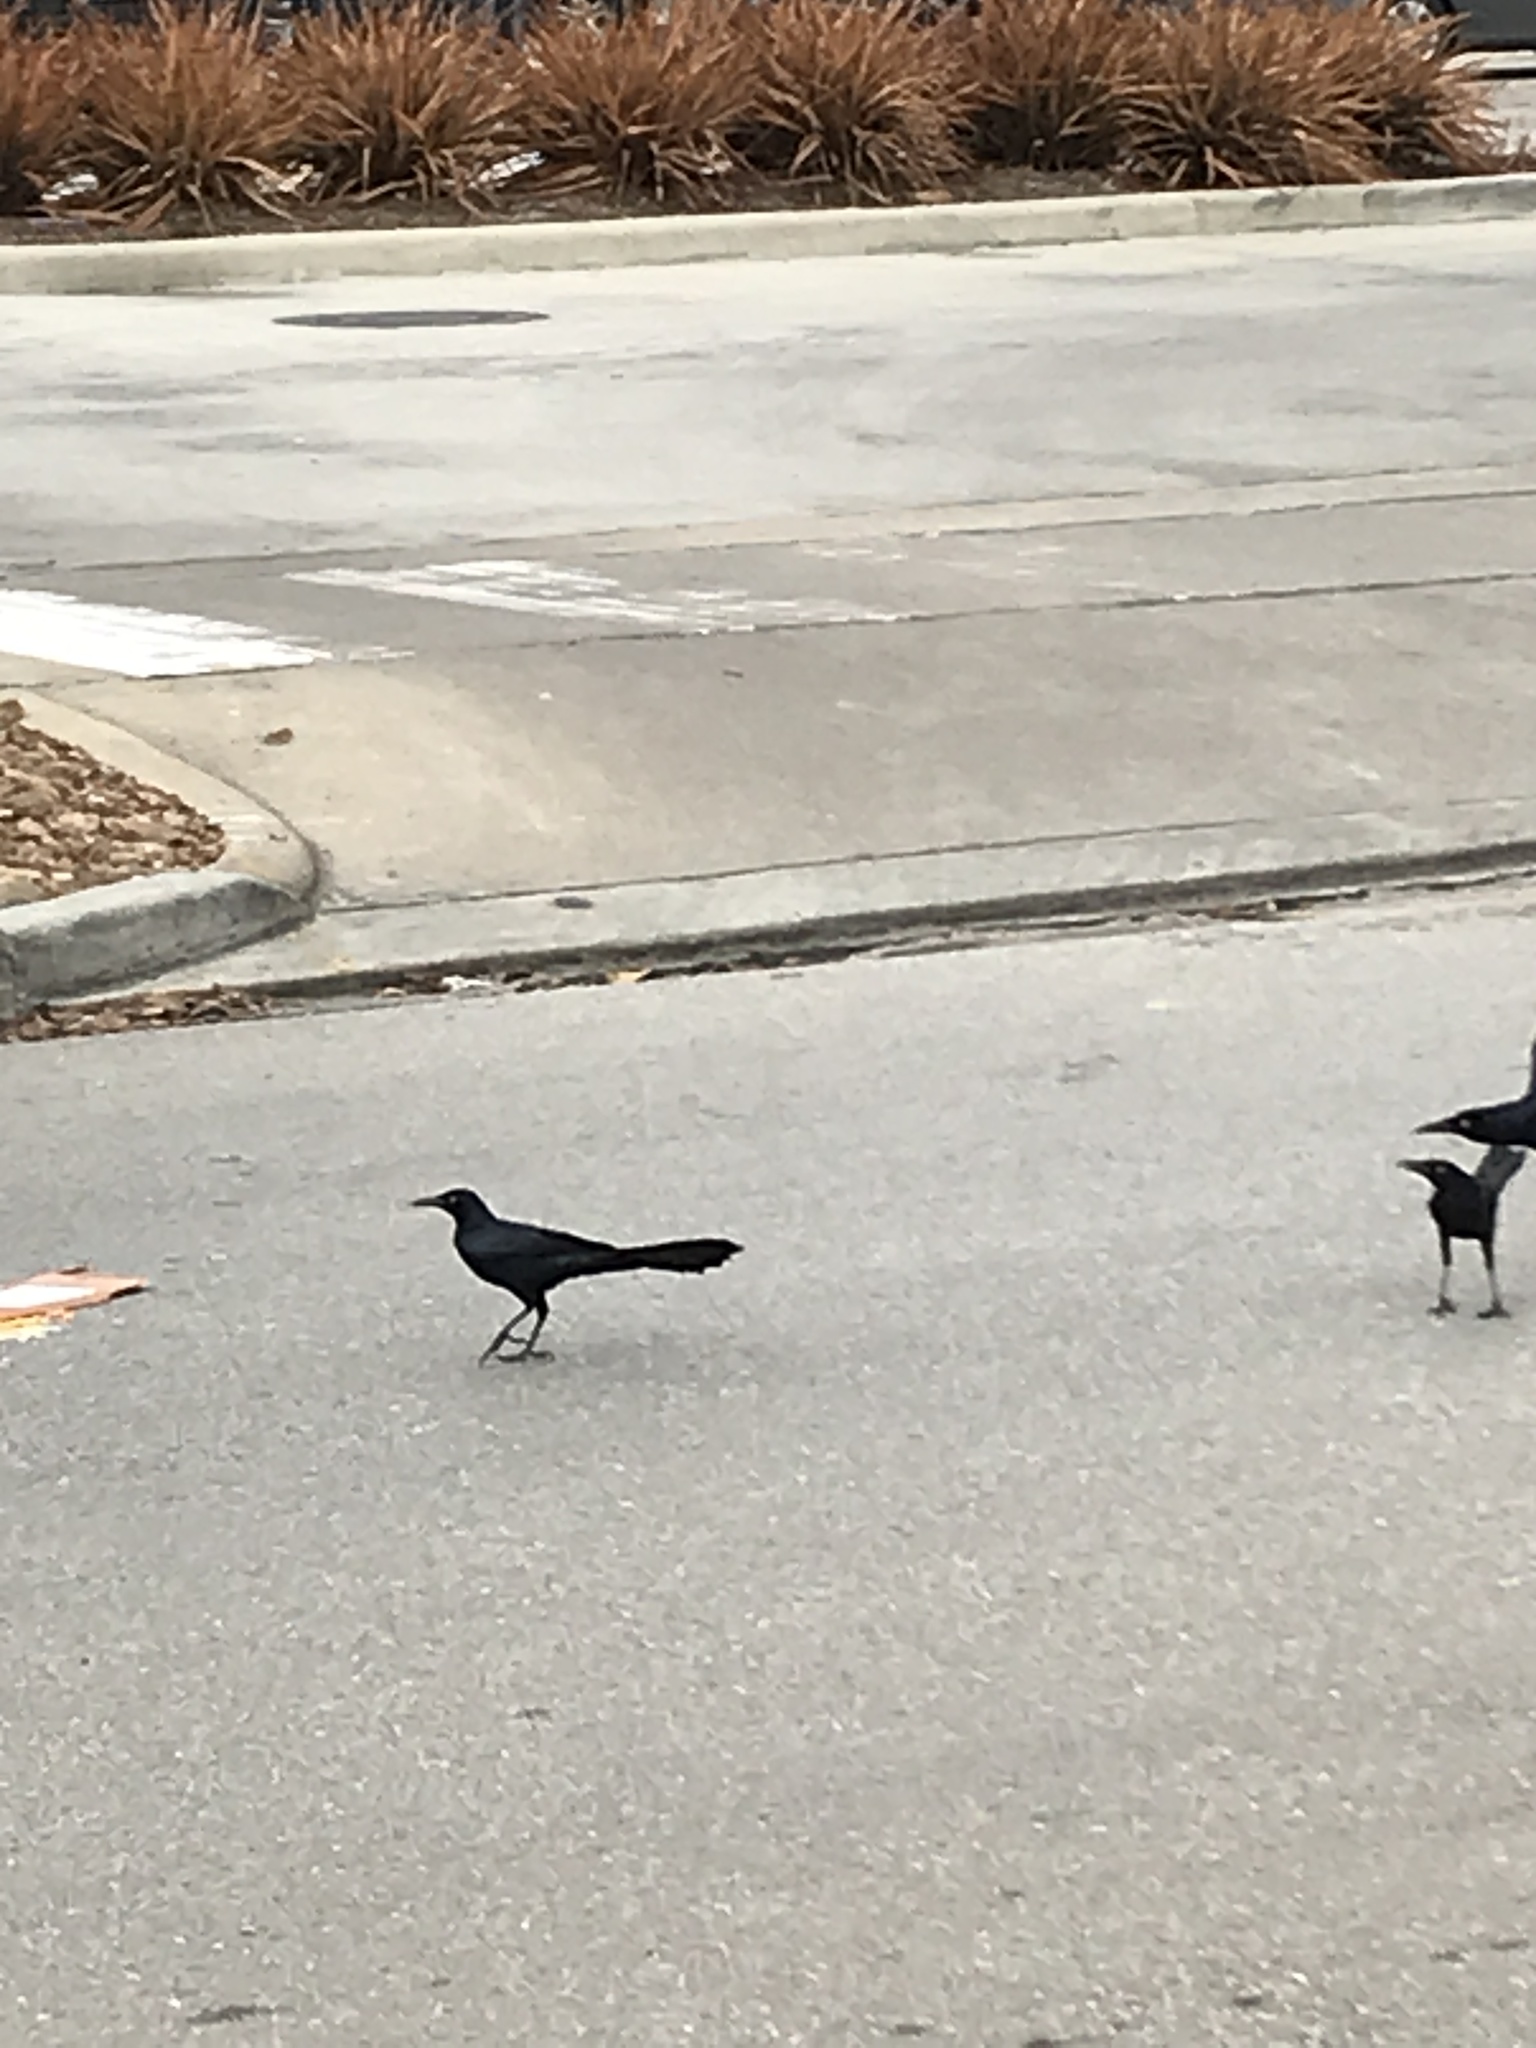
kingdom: Animalia
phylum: Chordata
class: Aves
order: Passeriformes
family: Icteridae
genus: Quiscalus
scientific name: Quiscalus mexicanus
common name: Great-tailed grackle
